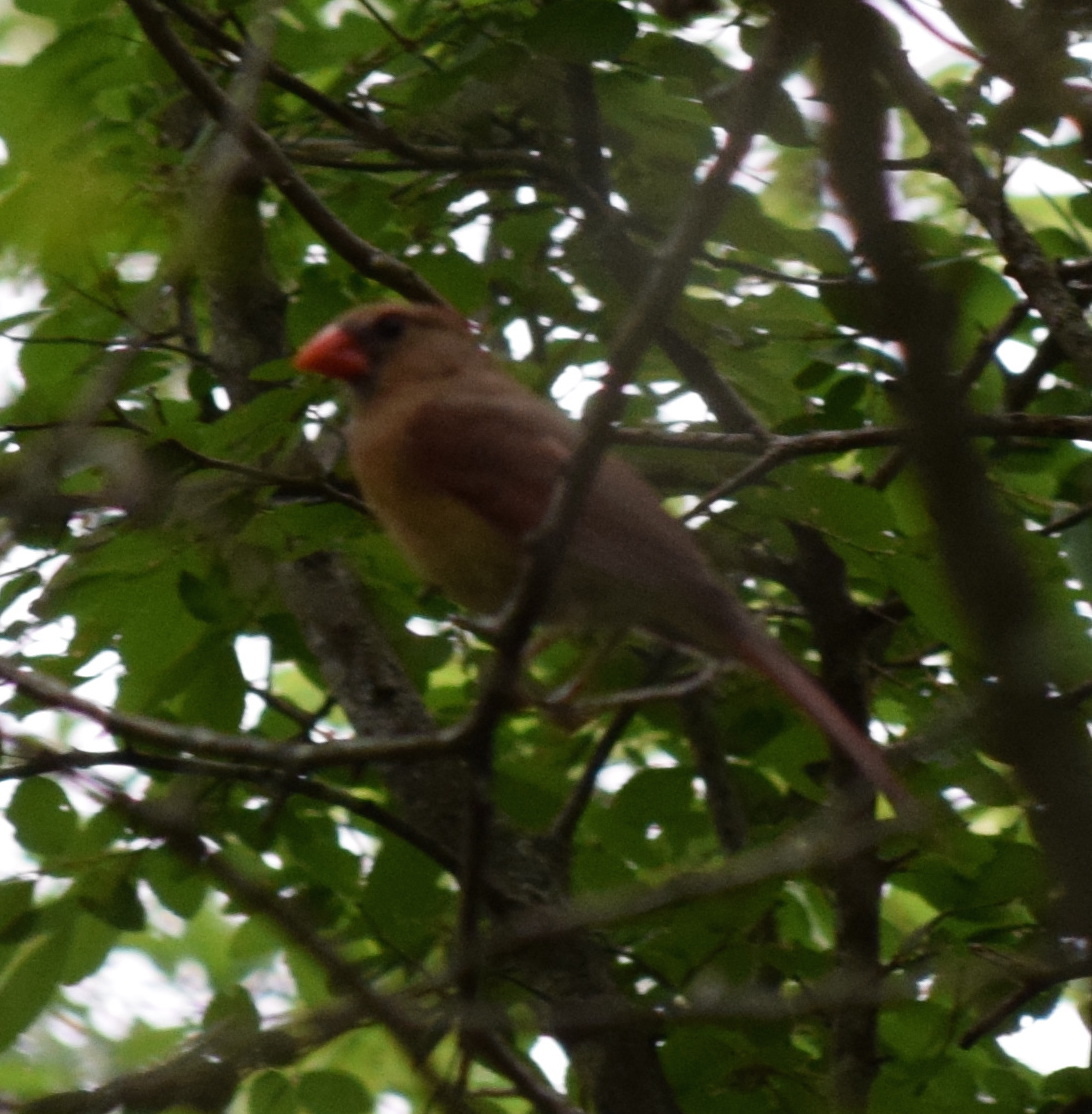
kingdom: Animalia
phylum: Chordata
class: Aves
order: Passeriformes
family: Cardinalidae
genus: Cardinalis
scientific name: Cardinalis cardinalis
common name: Northern cardinal
